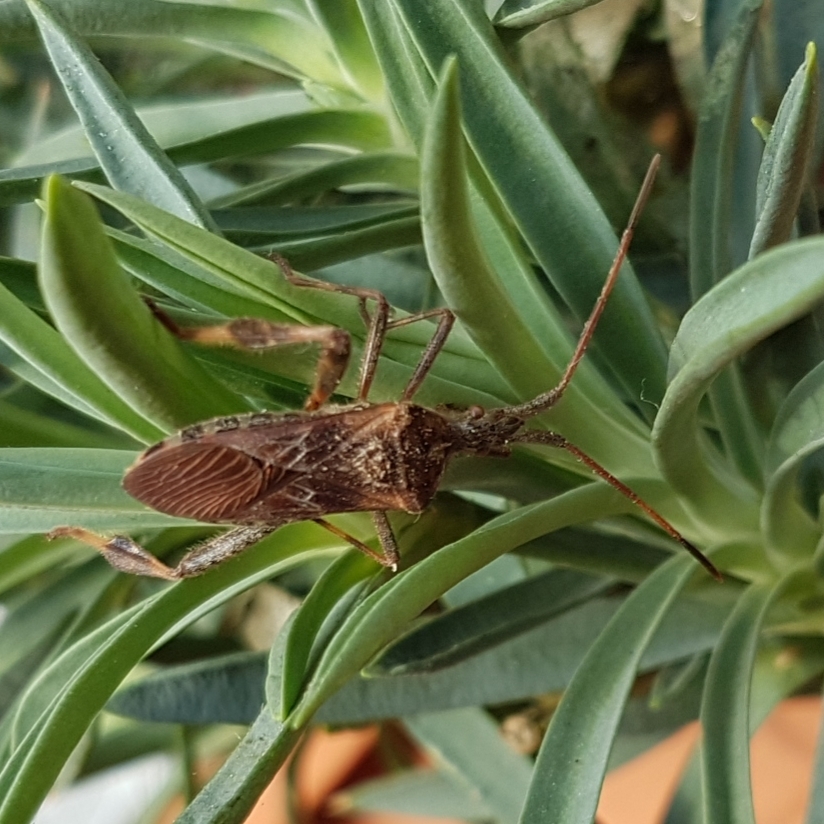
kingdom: Animalia
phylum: Arthropoda
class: Insecta
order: Hemiptera
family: Coreidae
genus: Leptoglossus
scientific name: Leptoglossus occidentalis
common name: Western conifer-seed bug
